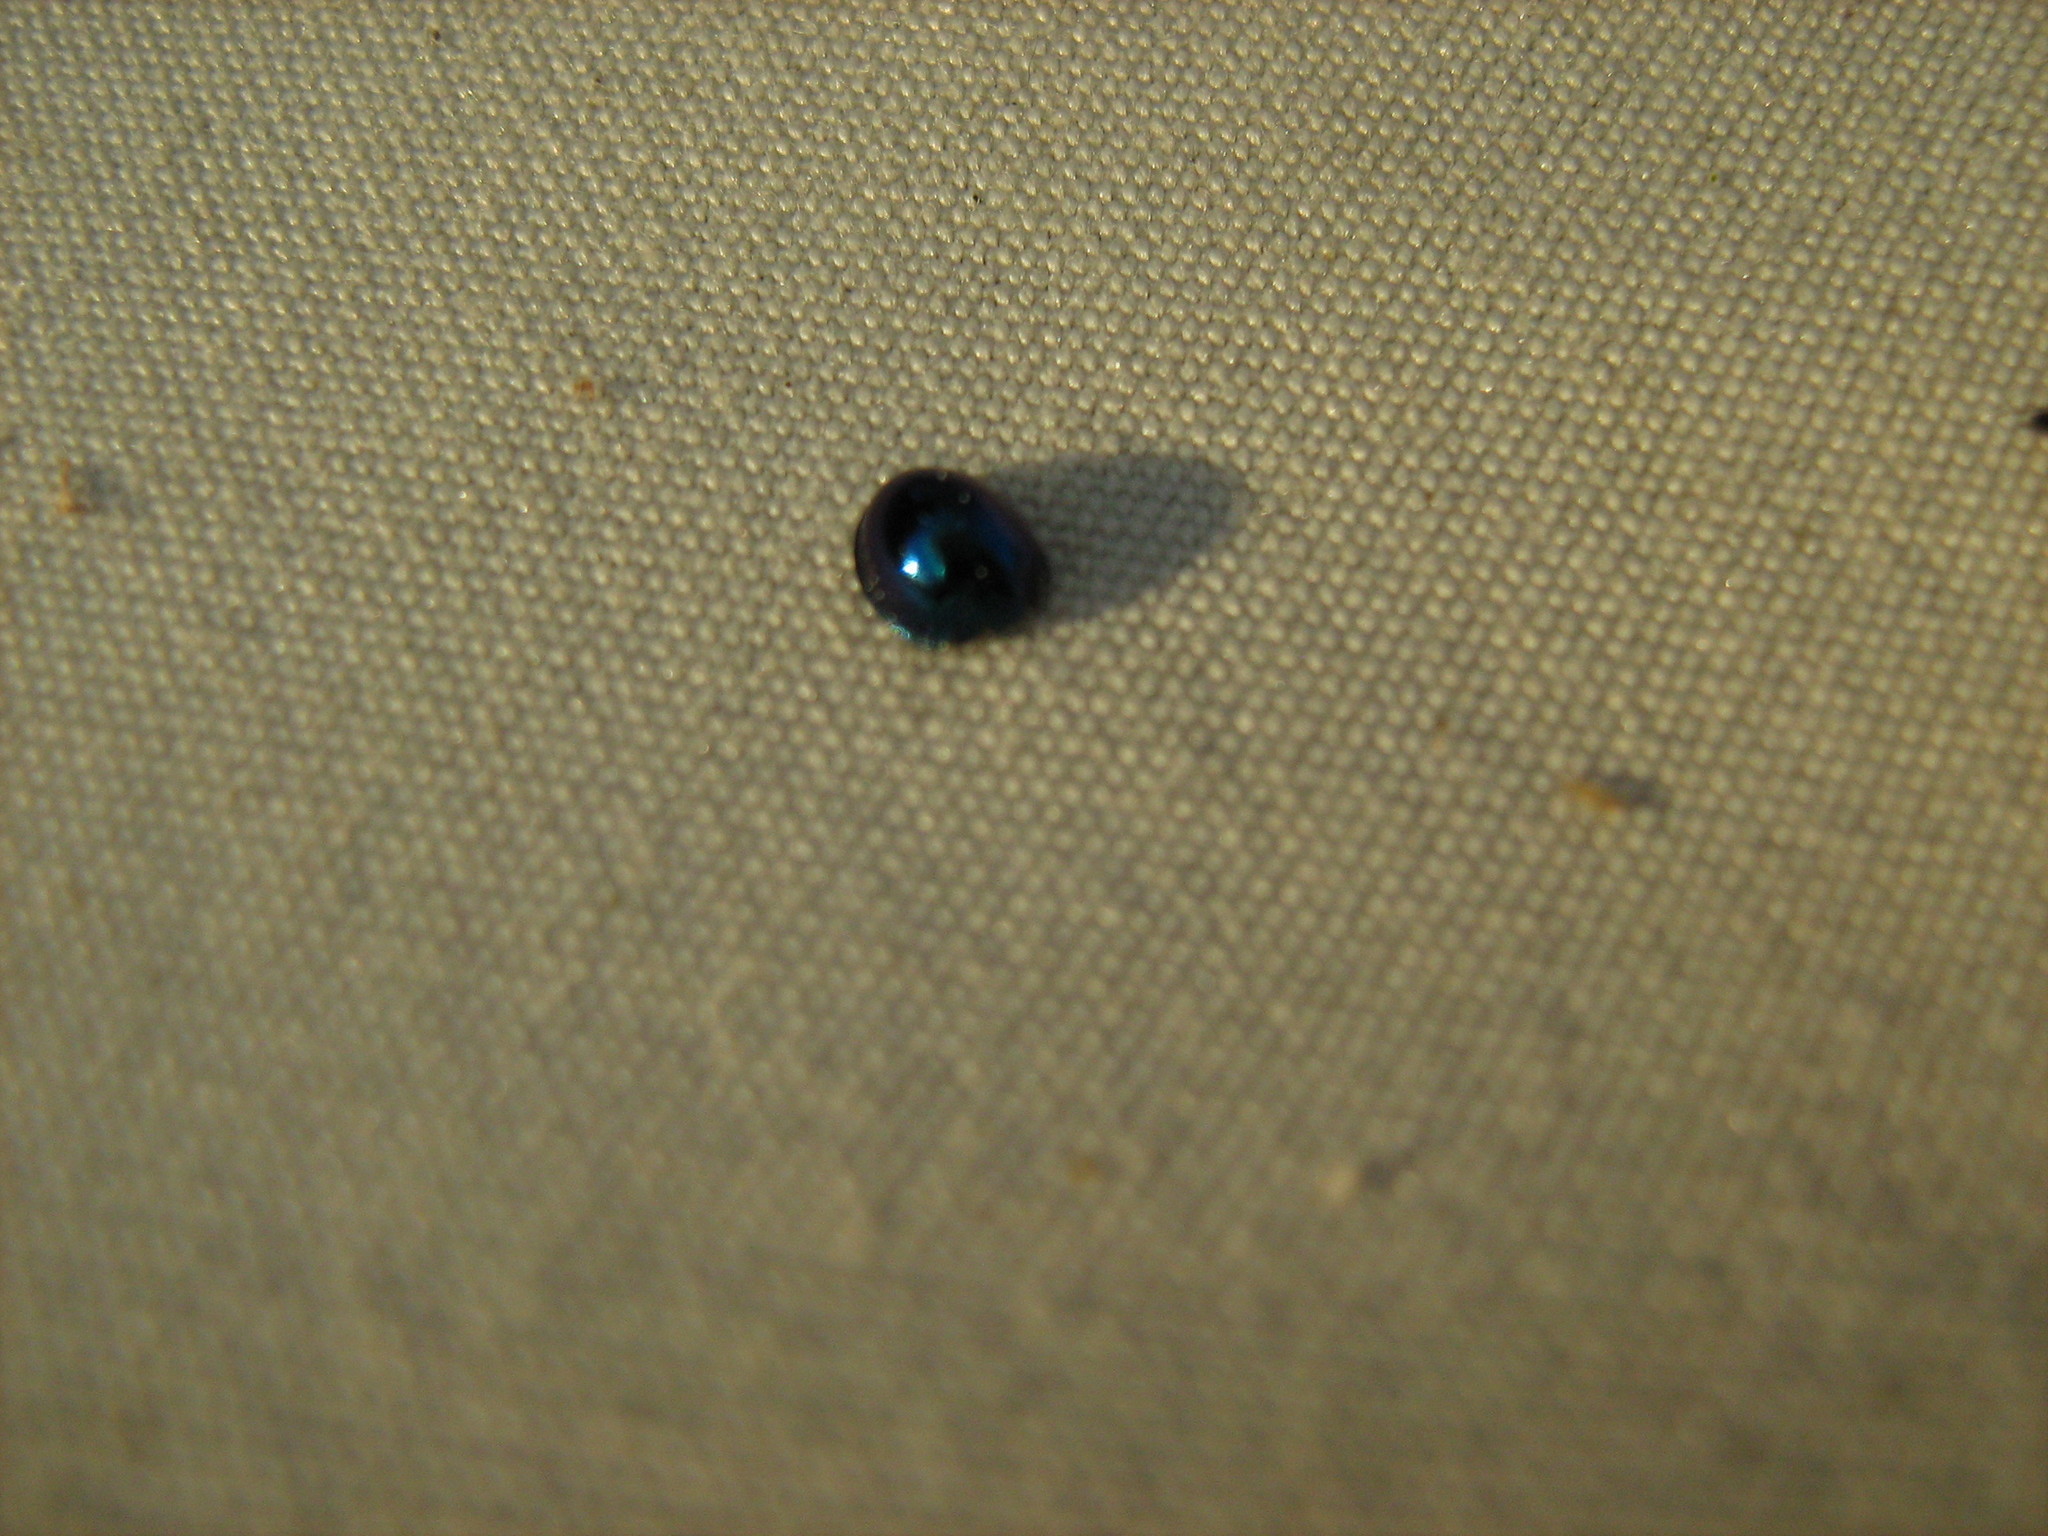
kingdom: Animalia
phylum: Arthropoda
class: Insecta
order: Coleoptera
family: Coccinellidae
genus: Halmus
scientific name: Halmus chalybeus
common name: Steel blue ladybird beetle
